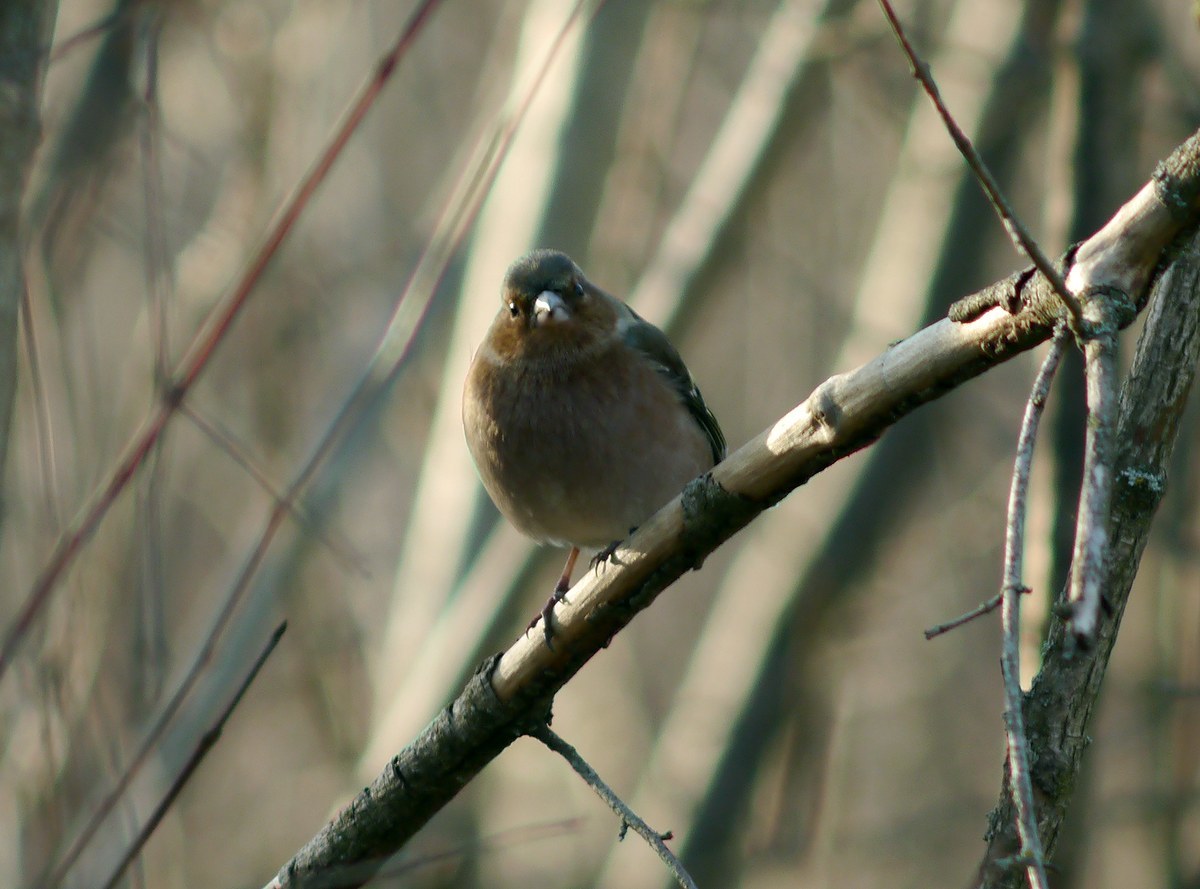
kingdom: Animalia
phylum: Chordata
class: Aves
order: Passeriformes
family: Fringillidae
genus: Fringilla
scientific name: Fringilla coelebs
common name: Common chaffinch
